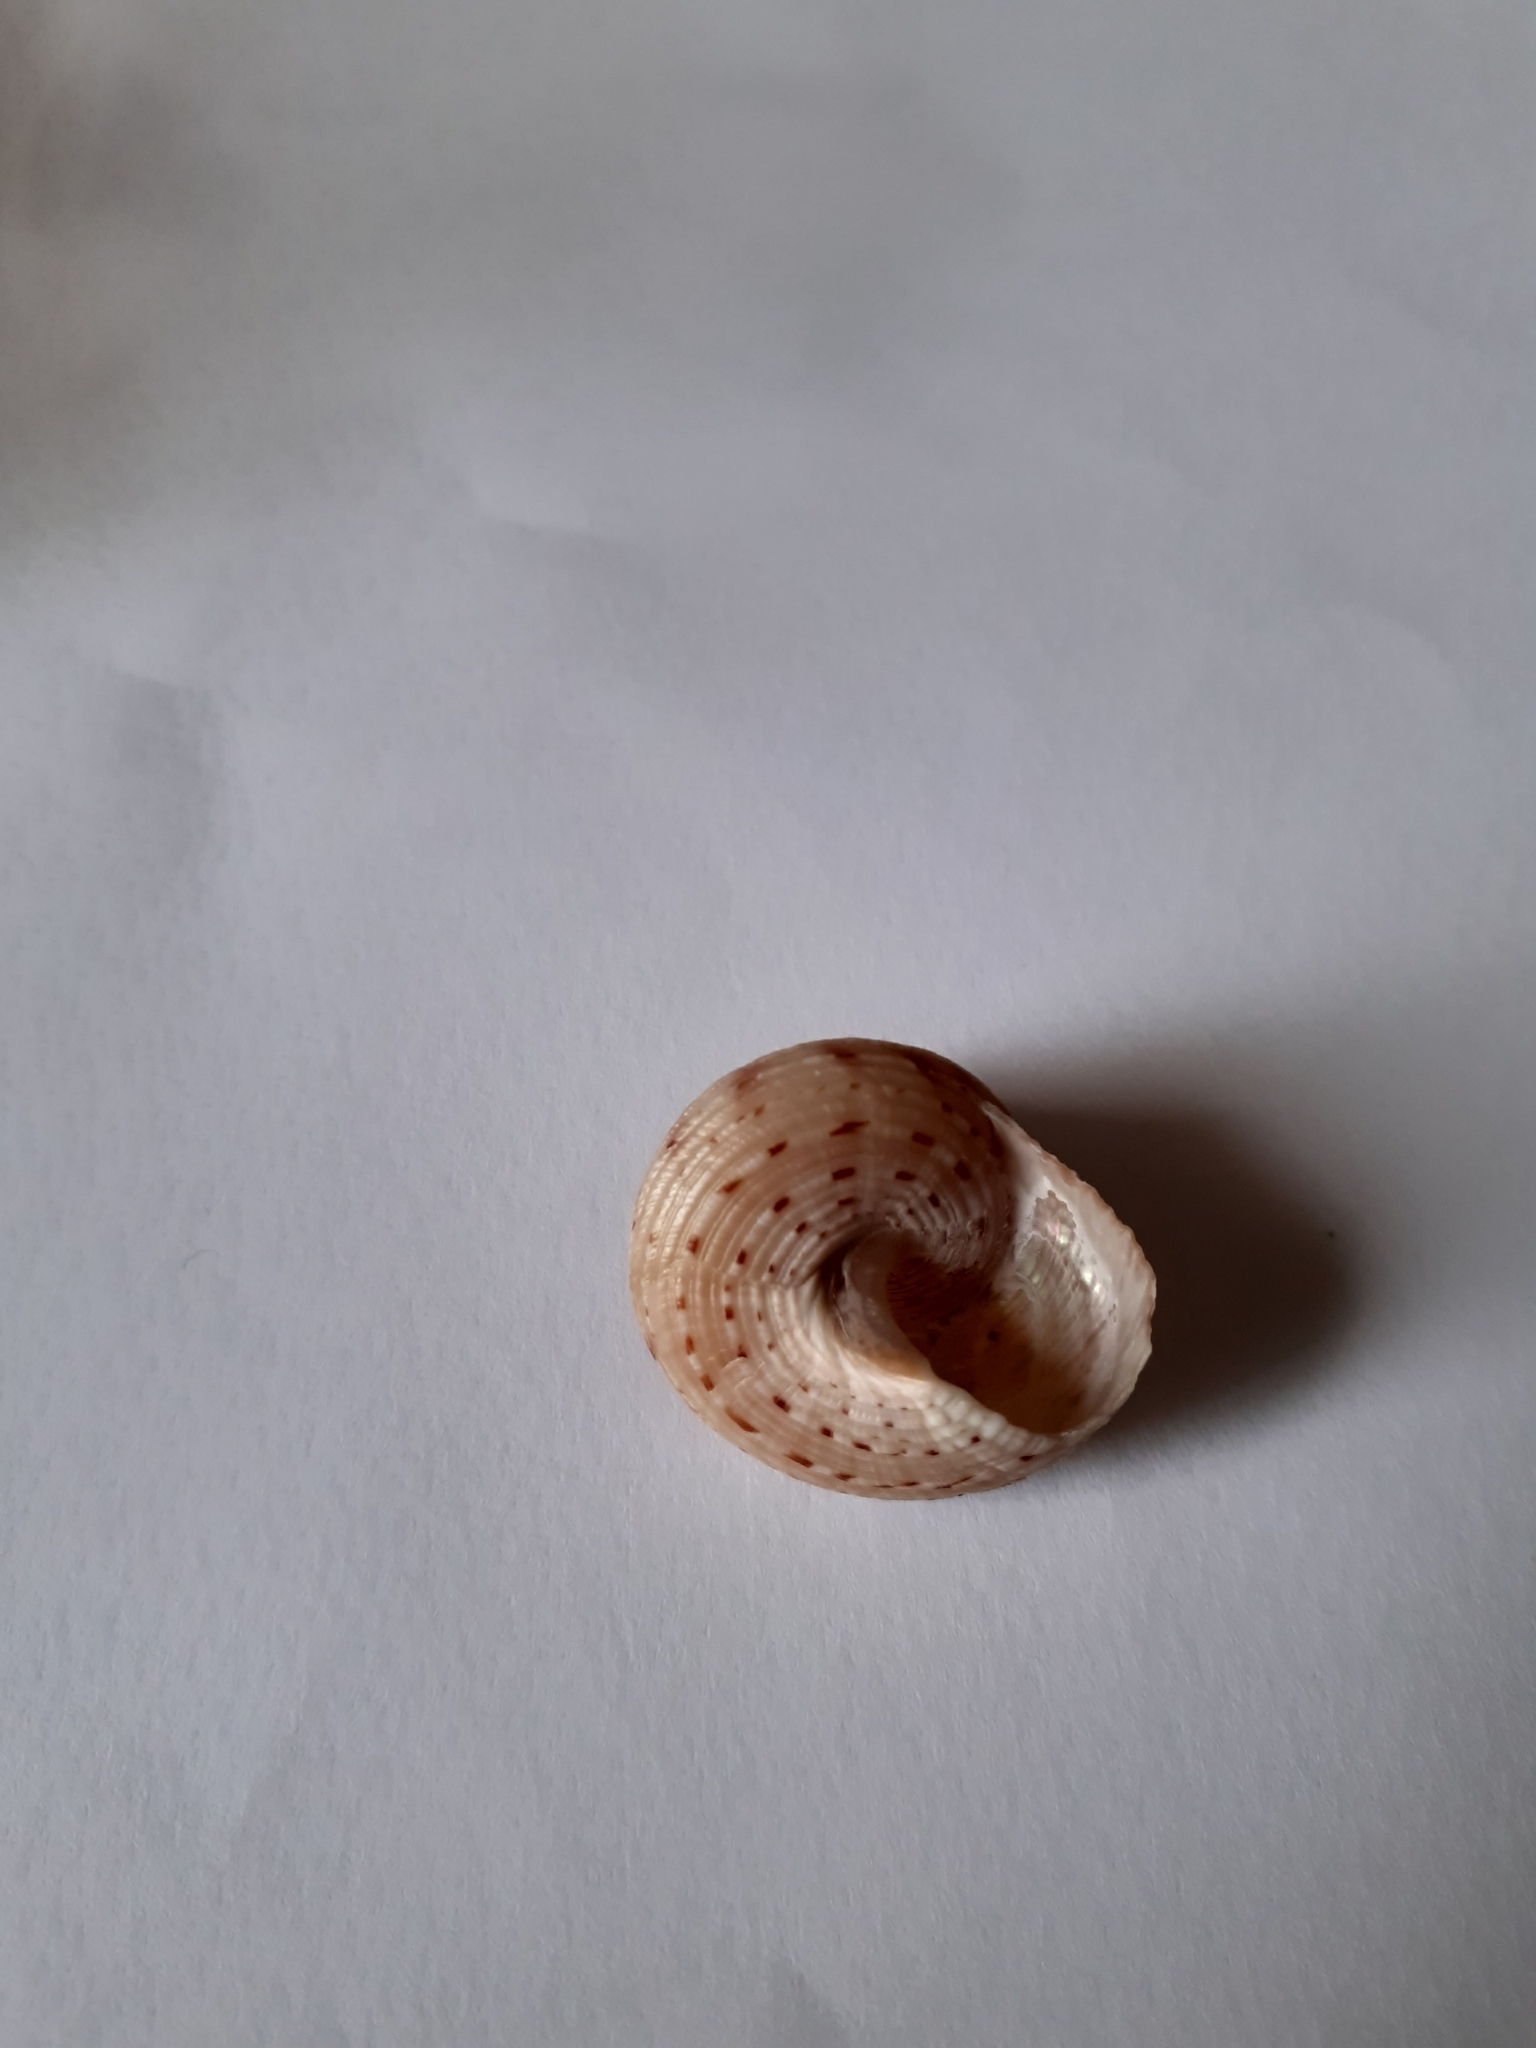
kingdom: Animalia
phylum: Mollusca
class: Gastropoda
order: Trochida
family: Calliostomatidae
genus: Calliostoma
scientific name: Calliostoma zizyphinum
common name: Painted top shell
